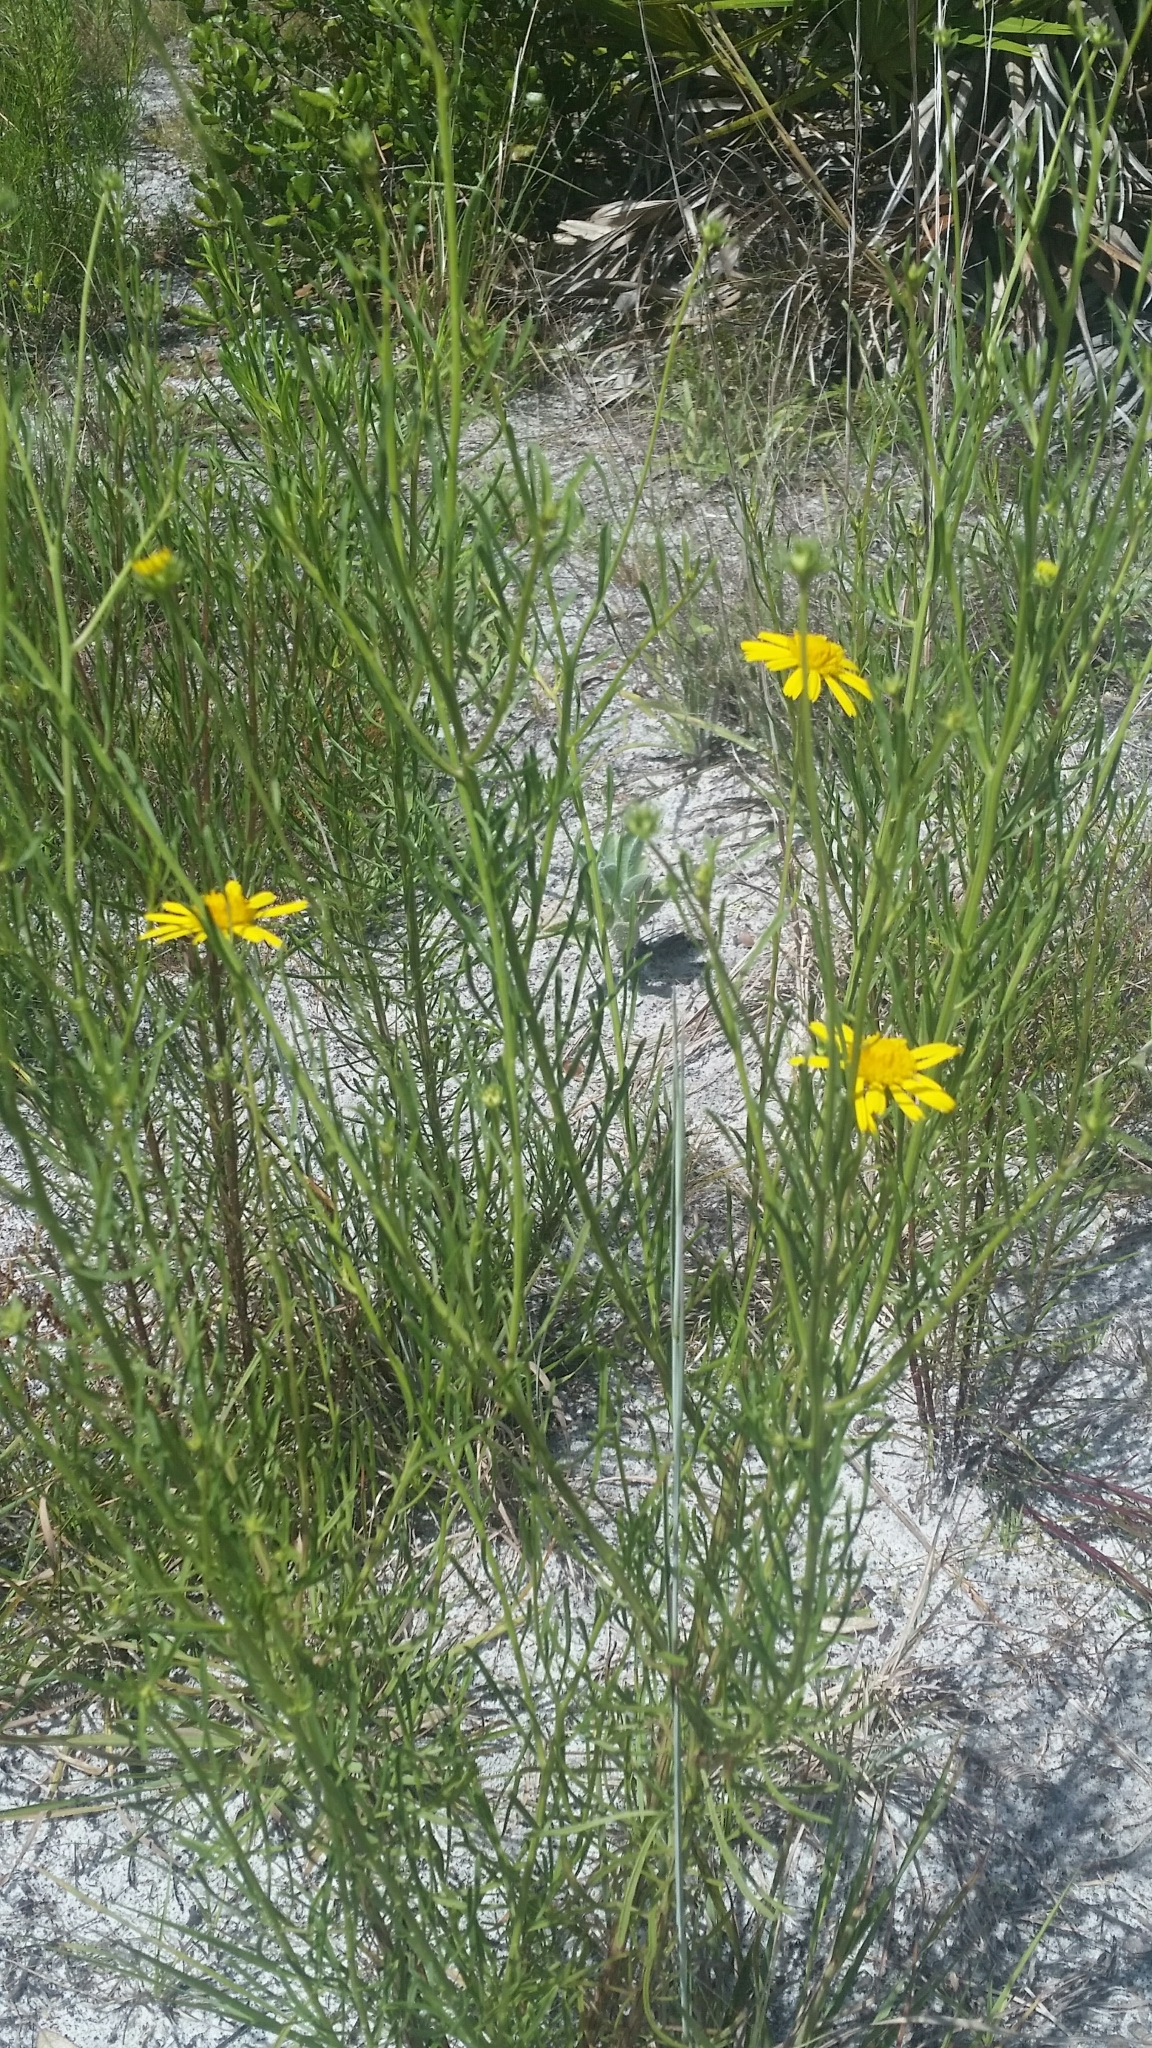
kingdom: Plantae
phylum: Tracheophyta
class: Magnoliopsida
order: Asterales
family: Asteraceae
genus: Balduina
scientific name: Balduina angustifolia
